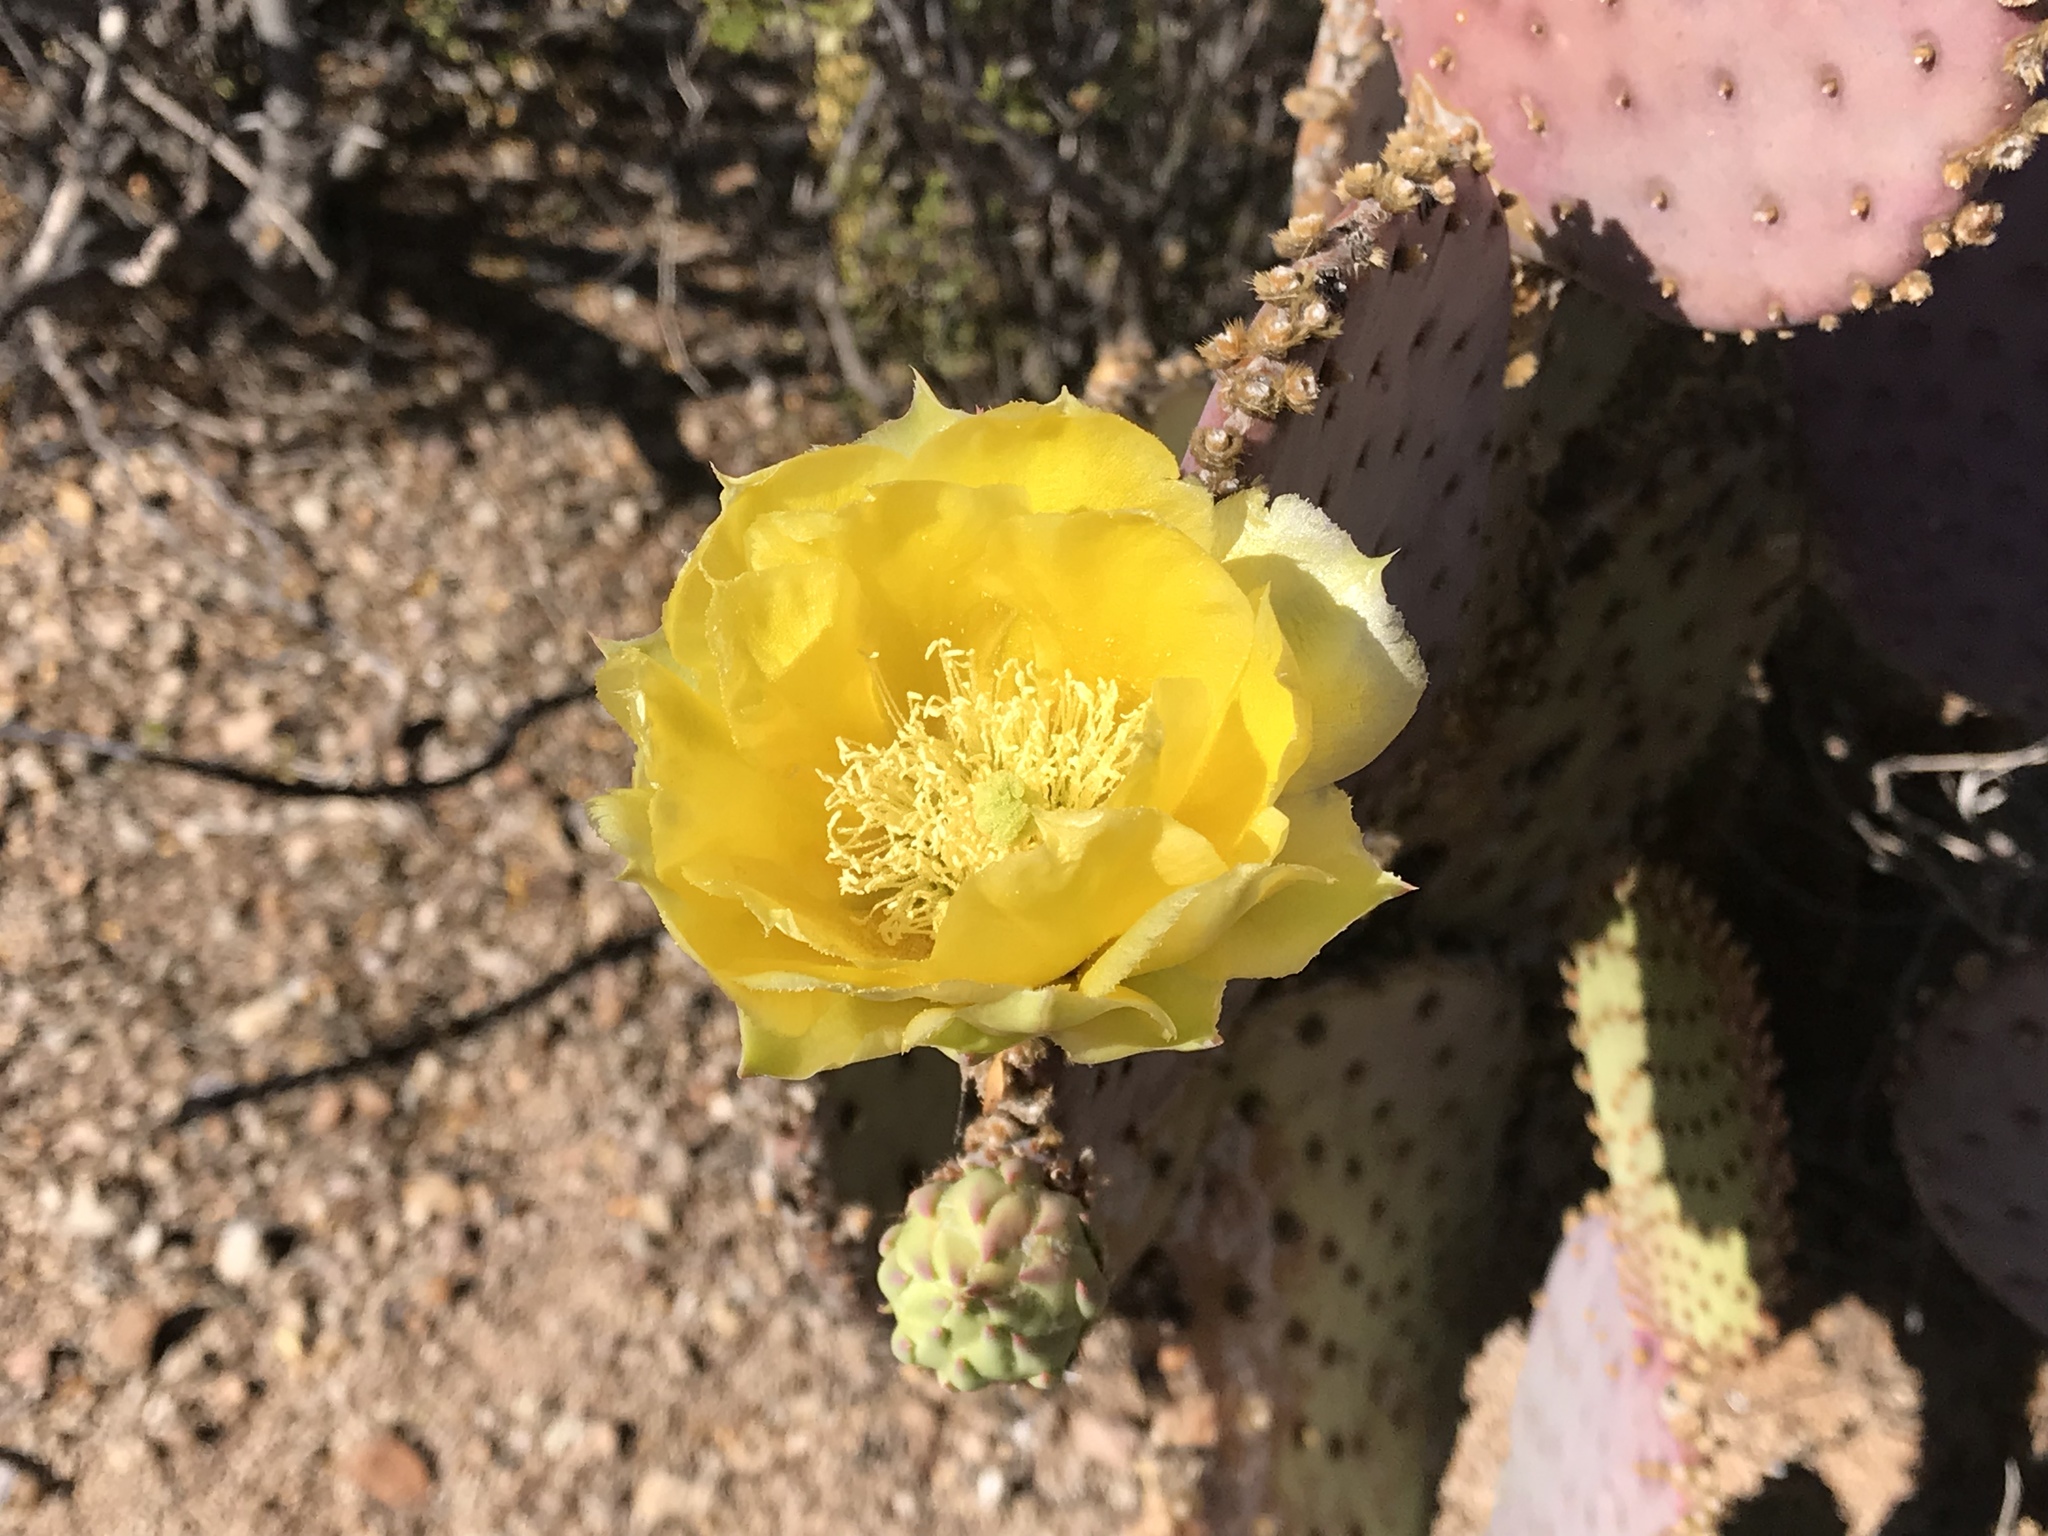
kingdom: Plantae
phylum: Tracheophyta
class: Magnoliopsida
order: Caryophyllales
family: Cactaceae
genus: Opuntia
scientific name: Opuntia gosseliniana
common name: Violet prickly-pear
